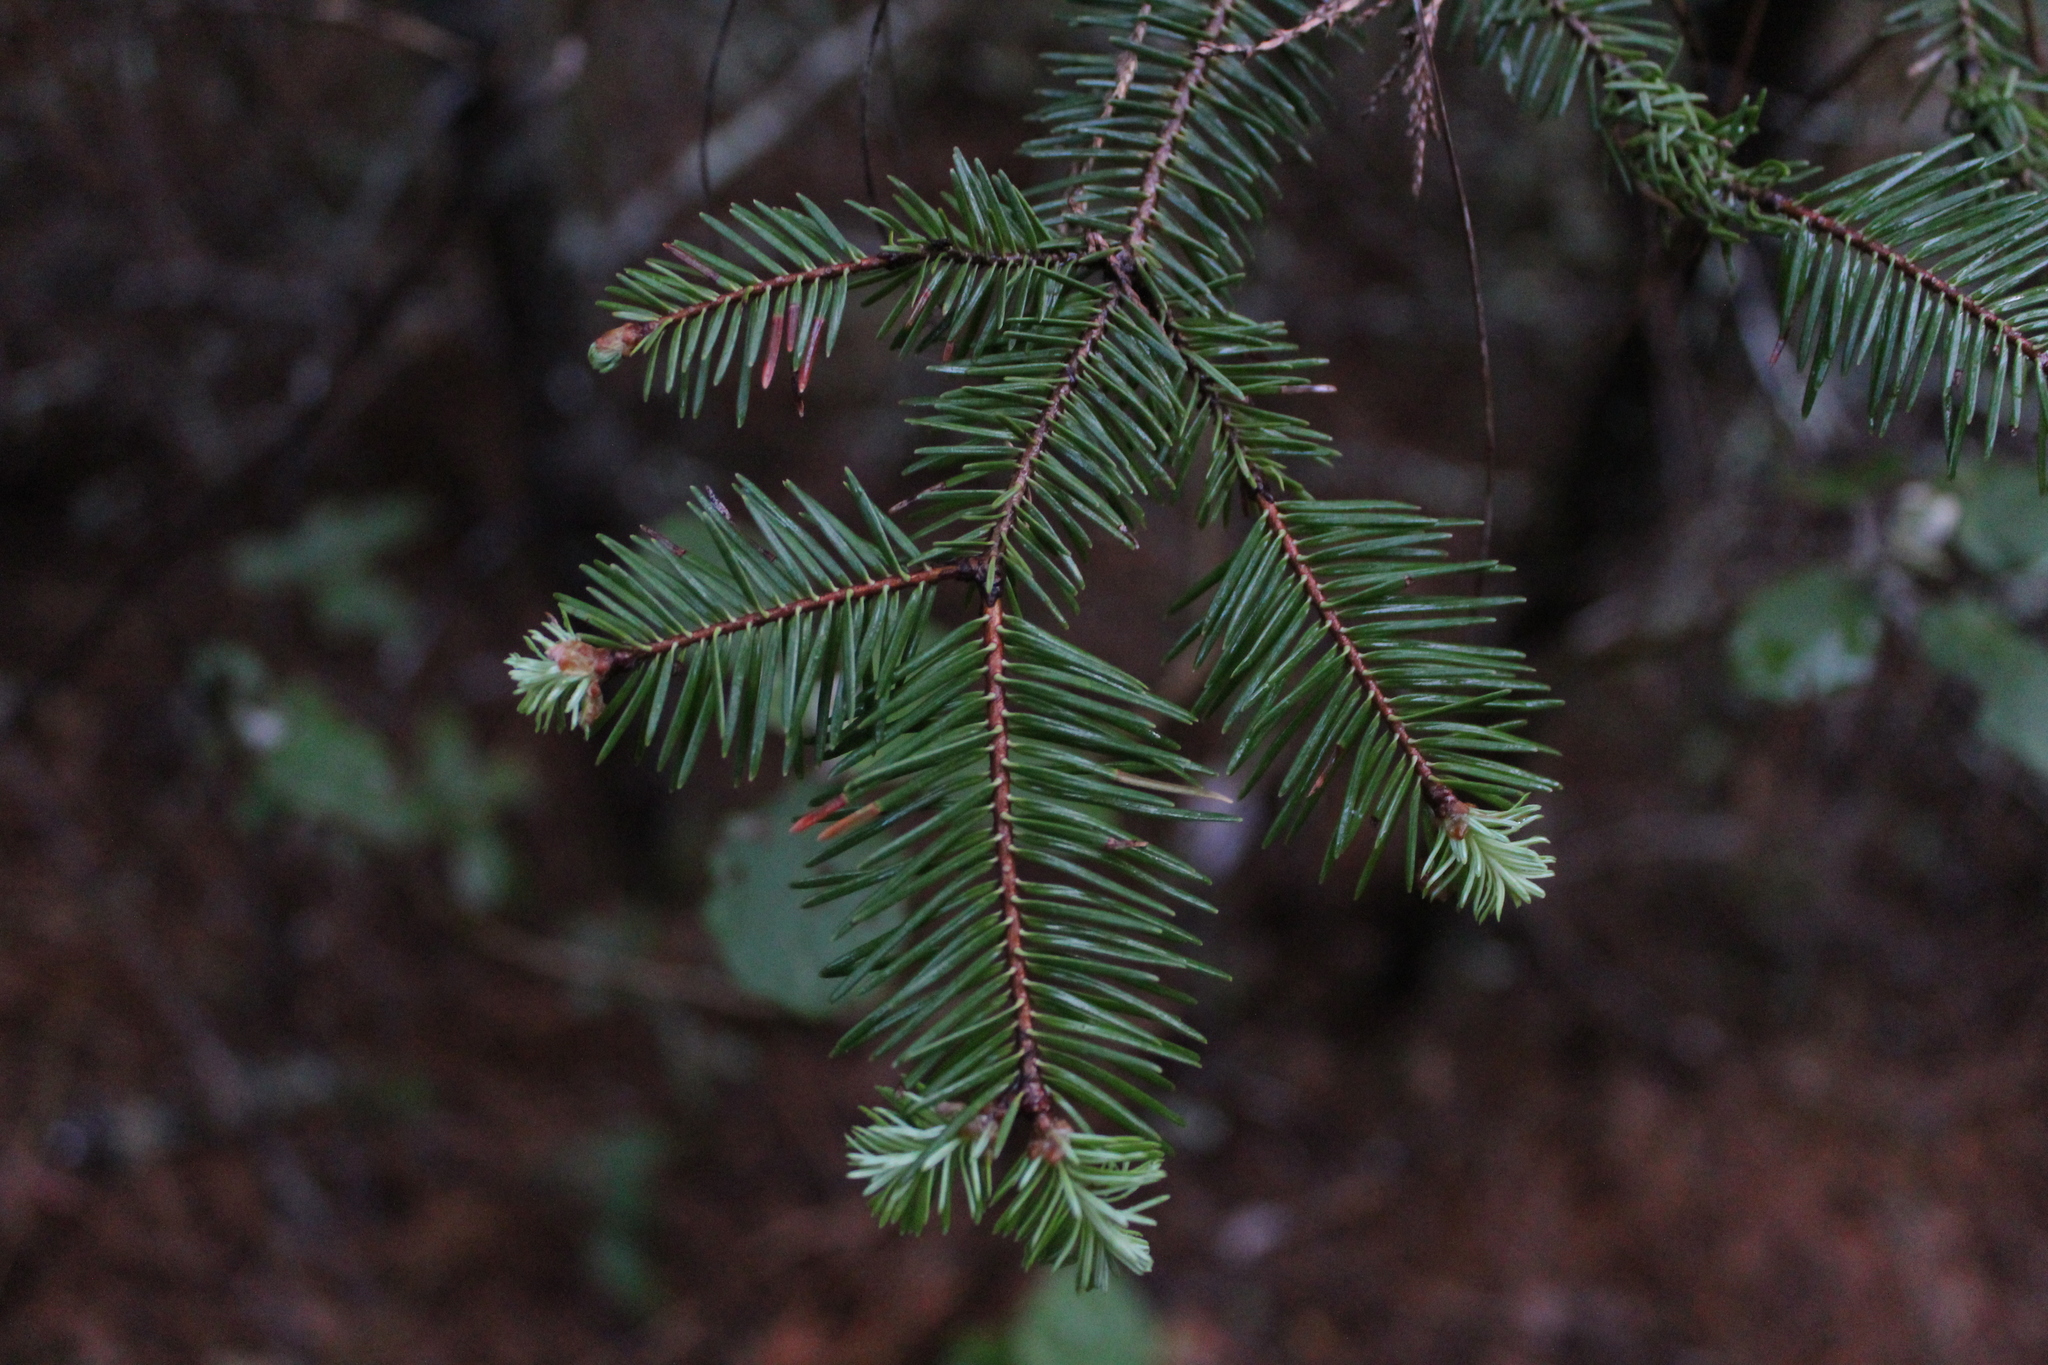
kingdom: Plantae
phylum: Tracheophyta
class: Pinopsida
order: Pinales
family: Pinaceae
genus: Pseudotsuga
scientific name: Pseudotsuga menziesii
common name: Douglas fir
